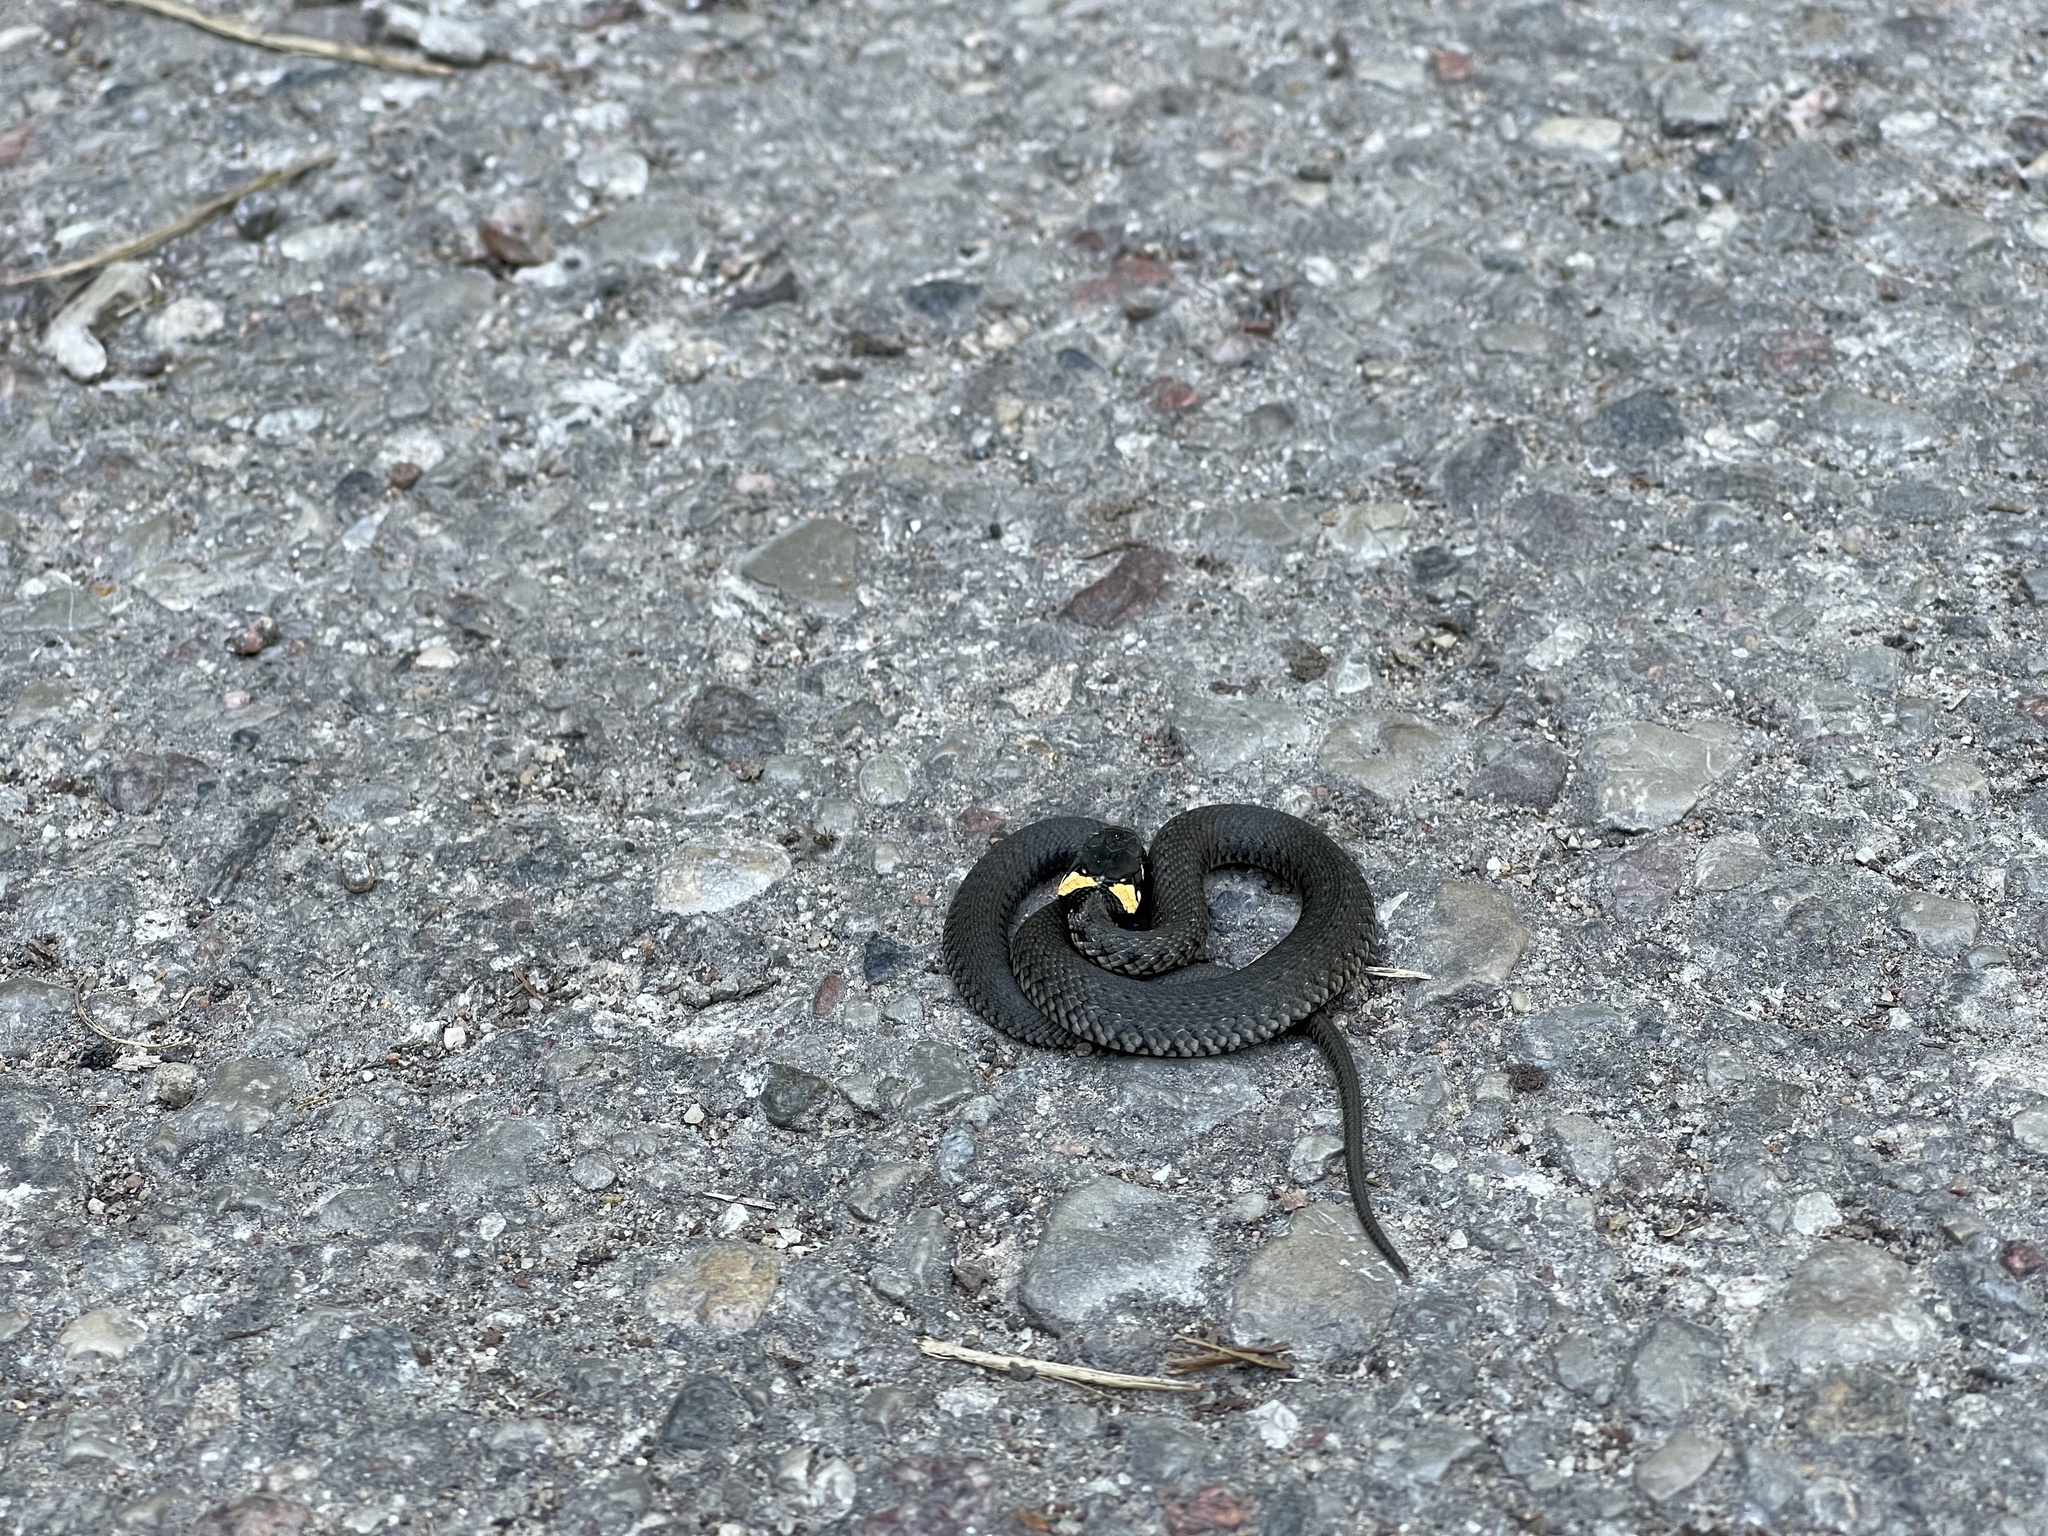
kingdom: Animalia
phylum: Chordata
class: Squamata
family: Colubridae
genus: Natrix
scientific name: Natrix natrix
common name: Grass snake
